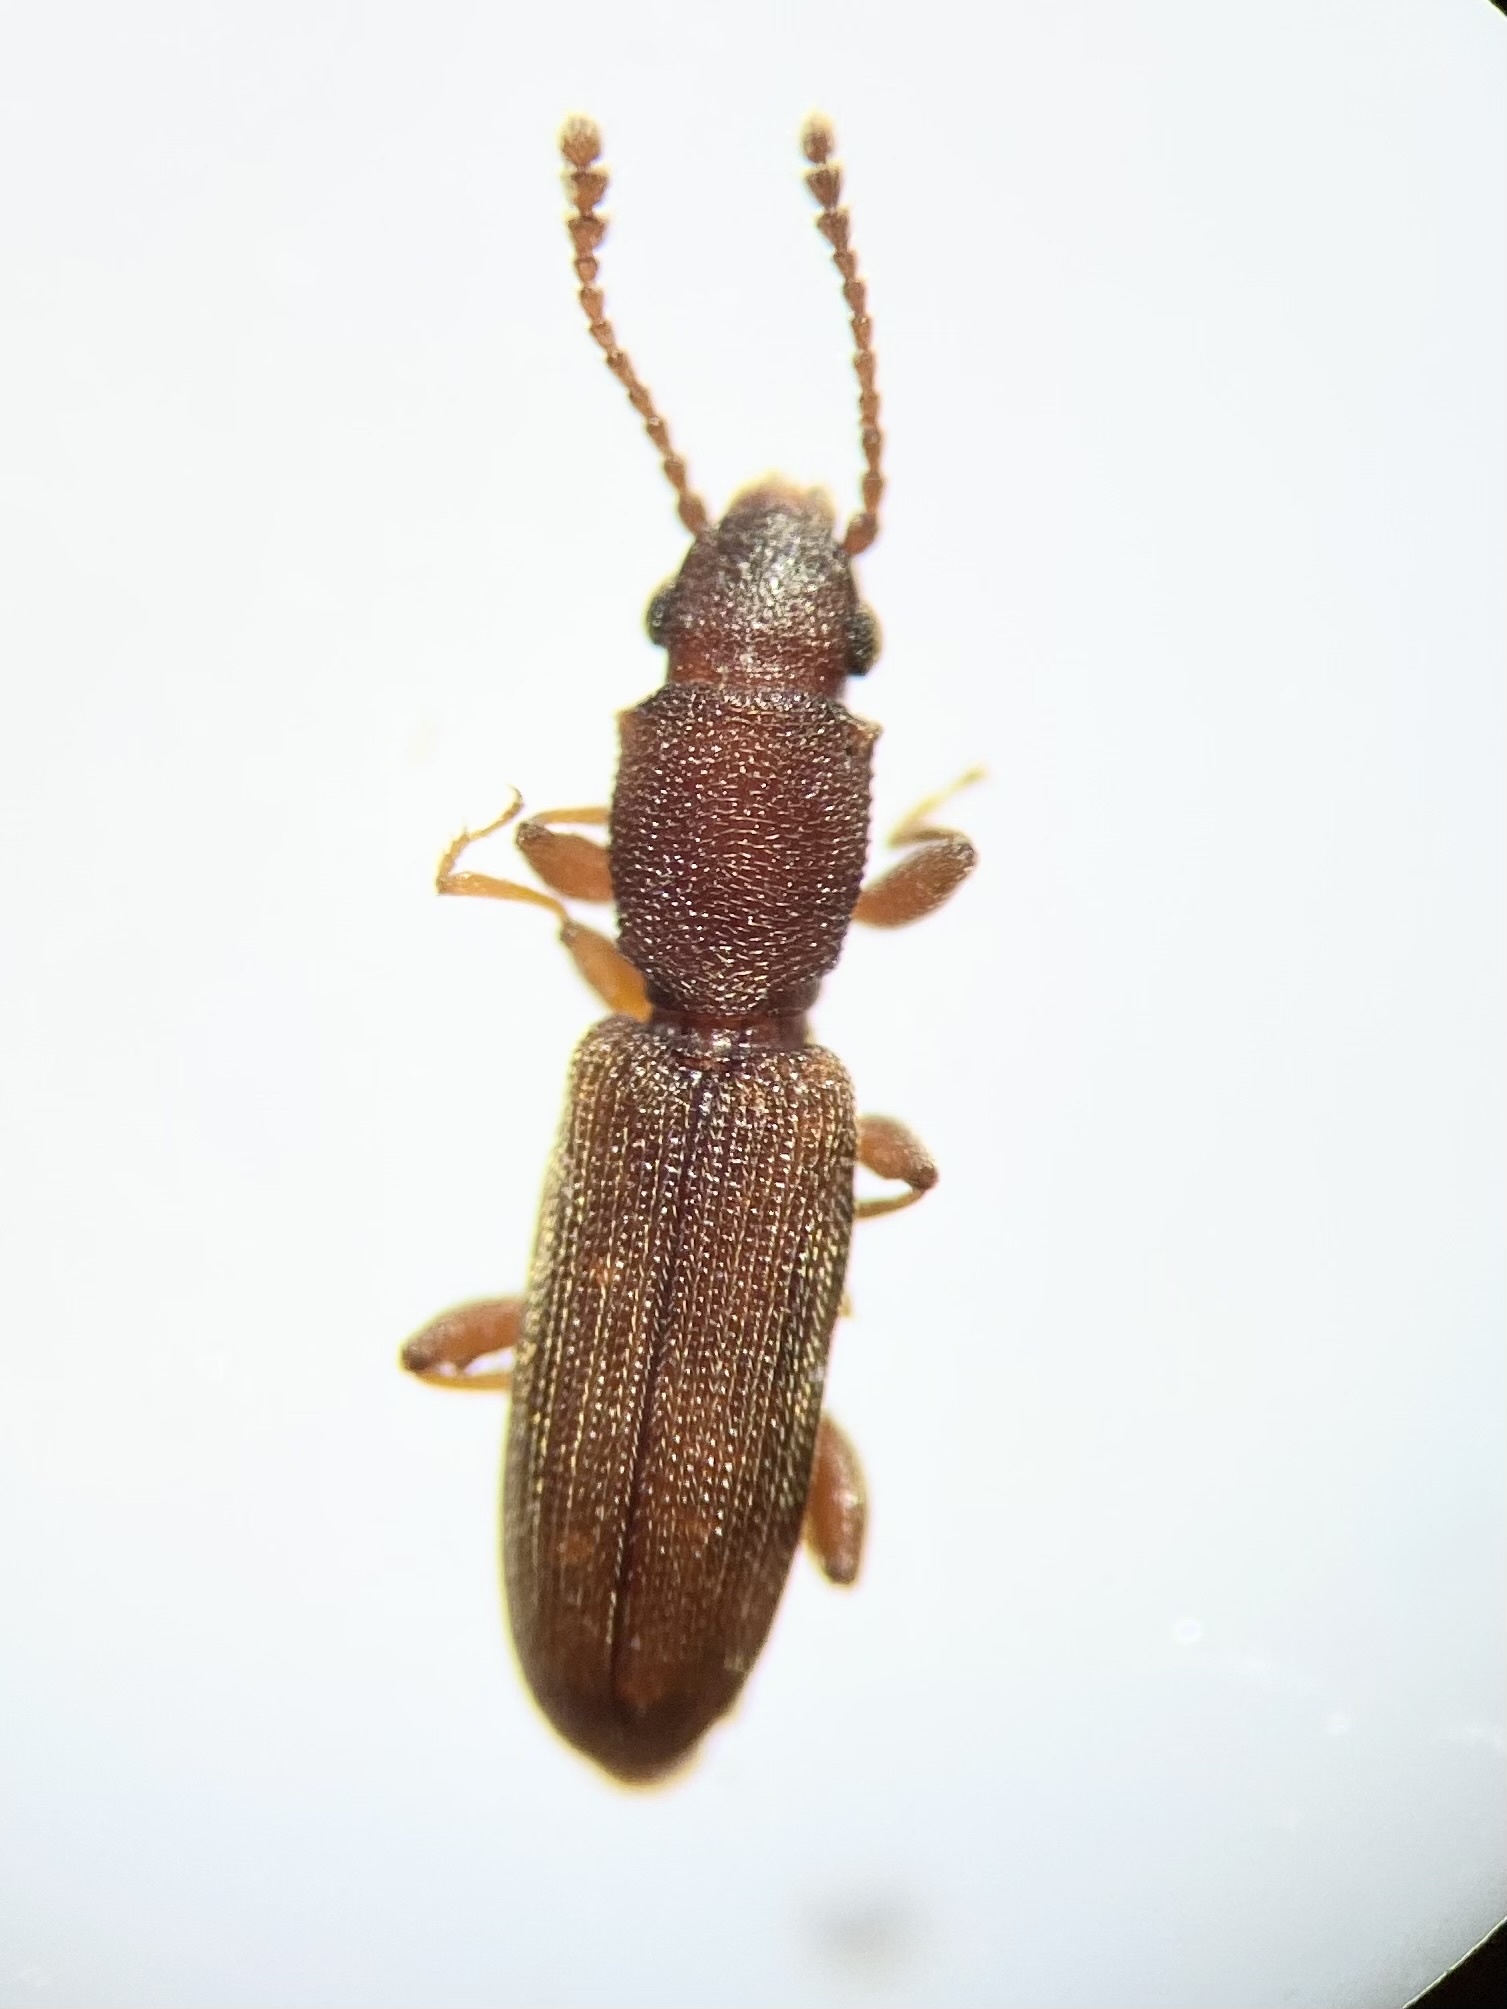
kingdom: Animalia
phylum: Arthropoda
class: Insecta
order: Coleoptera
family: Silvanidae
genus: Cathartosilvanus
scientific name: Cathartosilvanus imbellis
